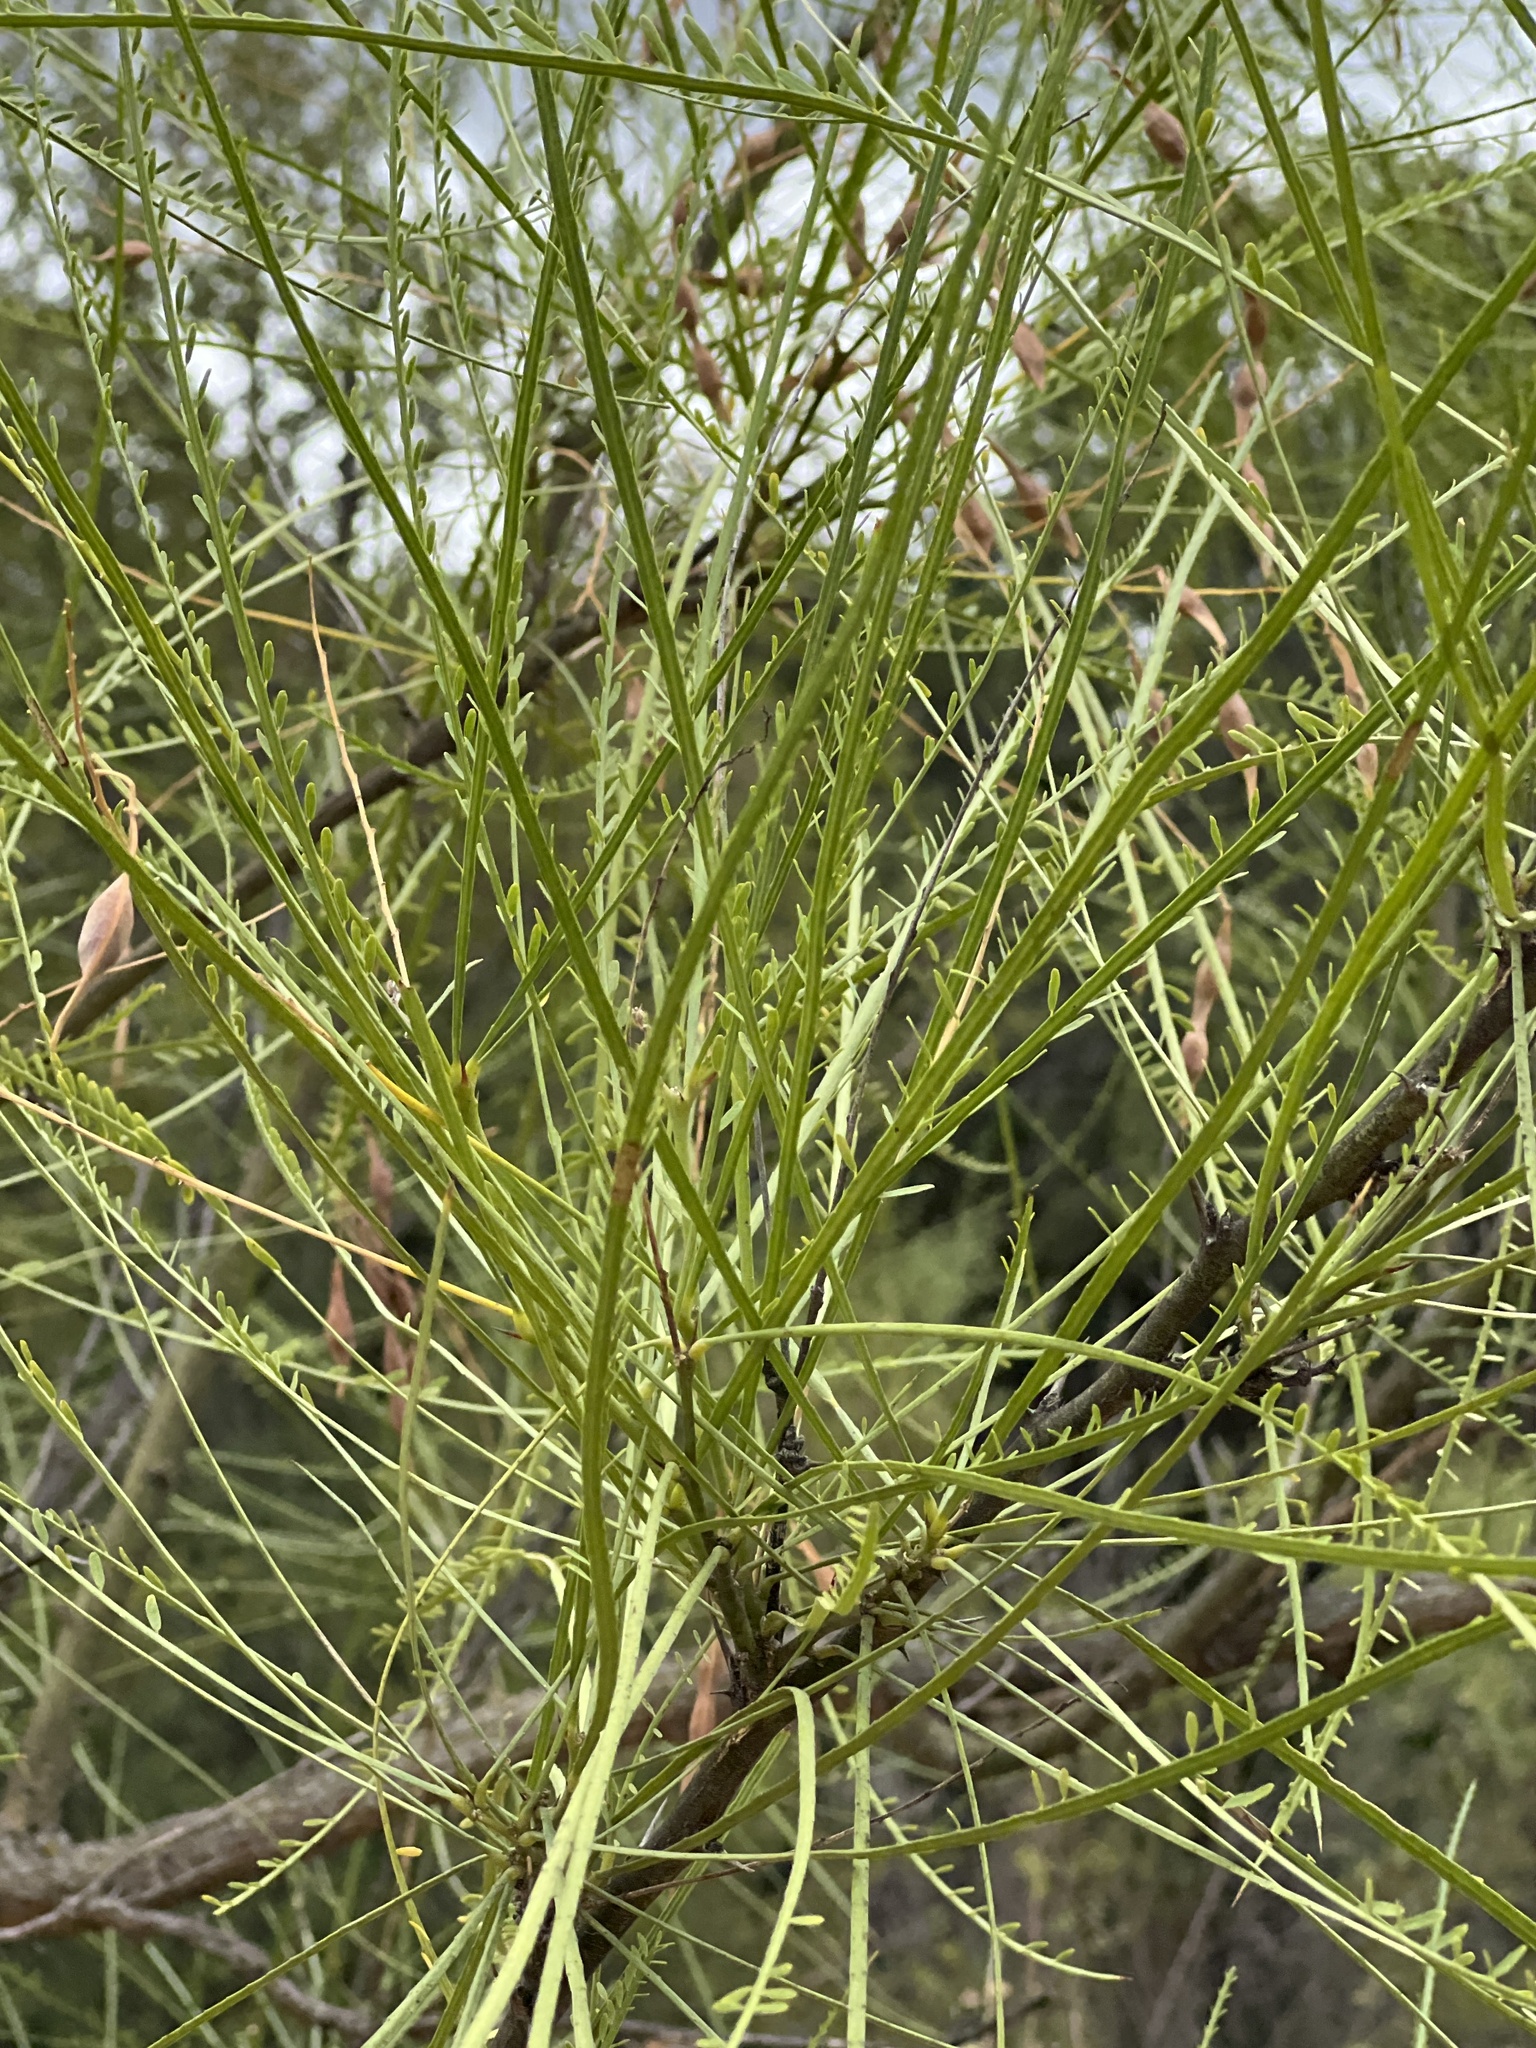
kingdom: Plantae
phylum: Tracheophyta
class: Magnoliopsida
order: Fabales
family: Fabaceae
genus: Parkinsonia
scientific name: Parkinsonia aculeata
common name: Jerusalem thorn
